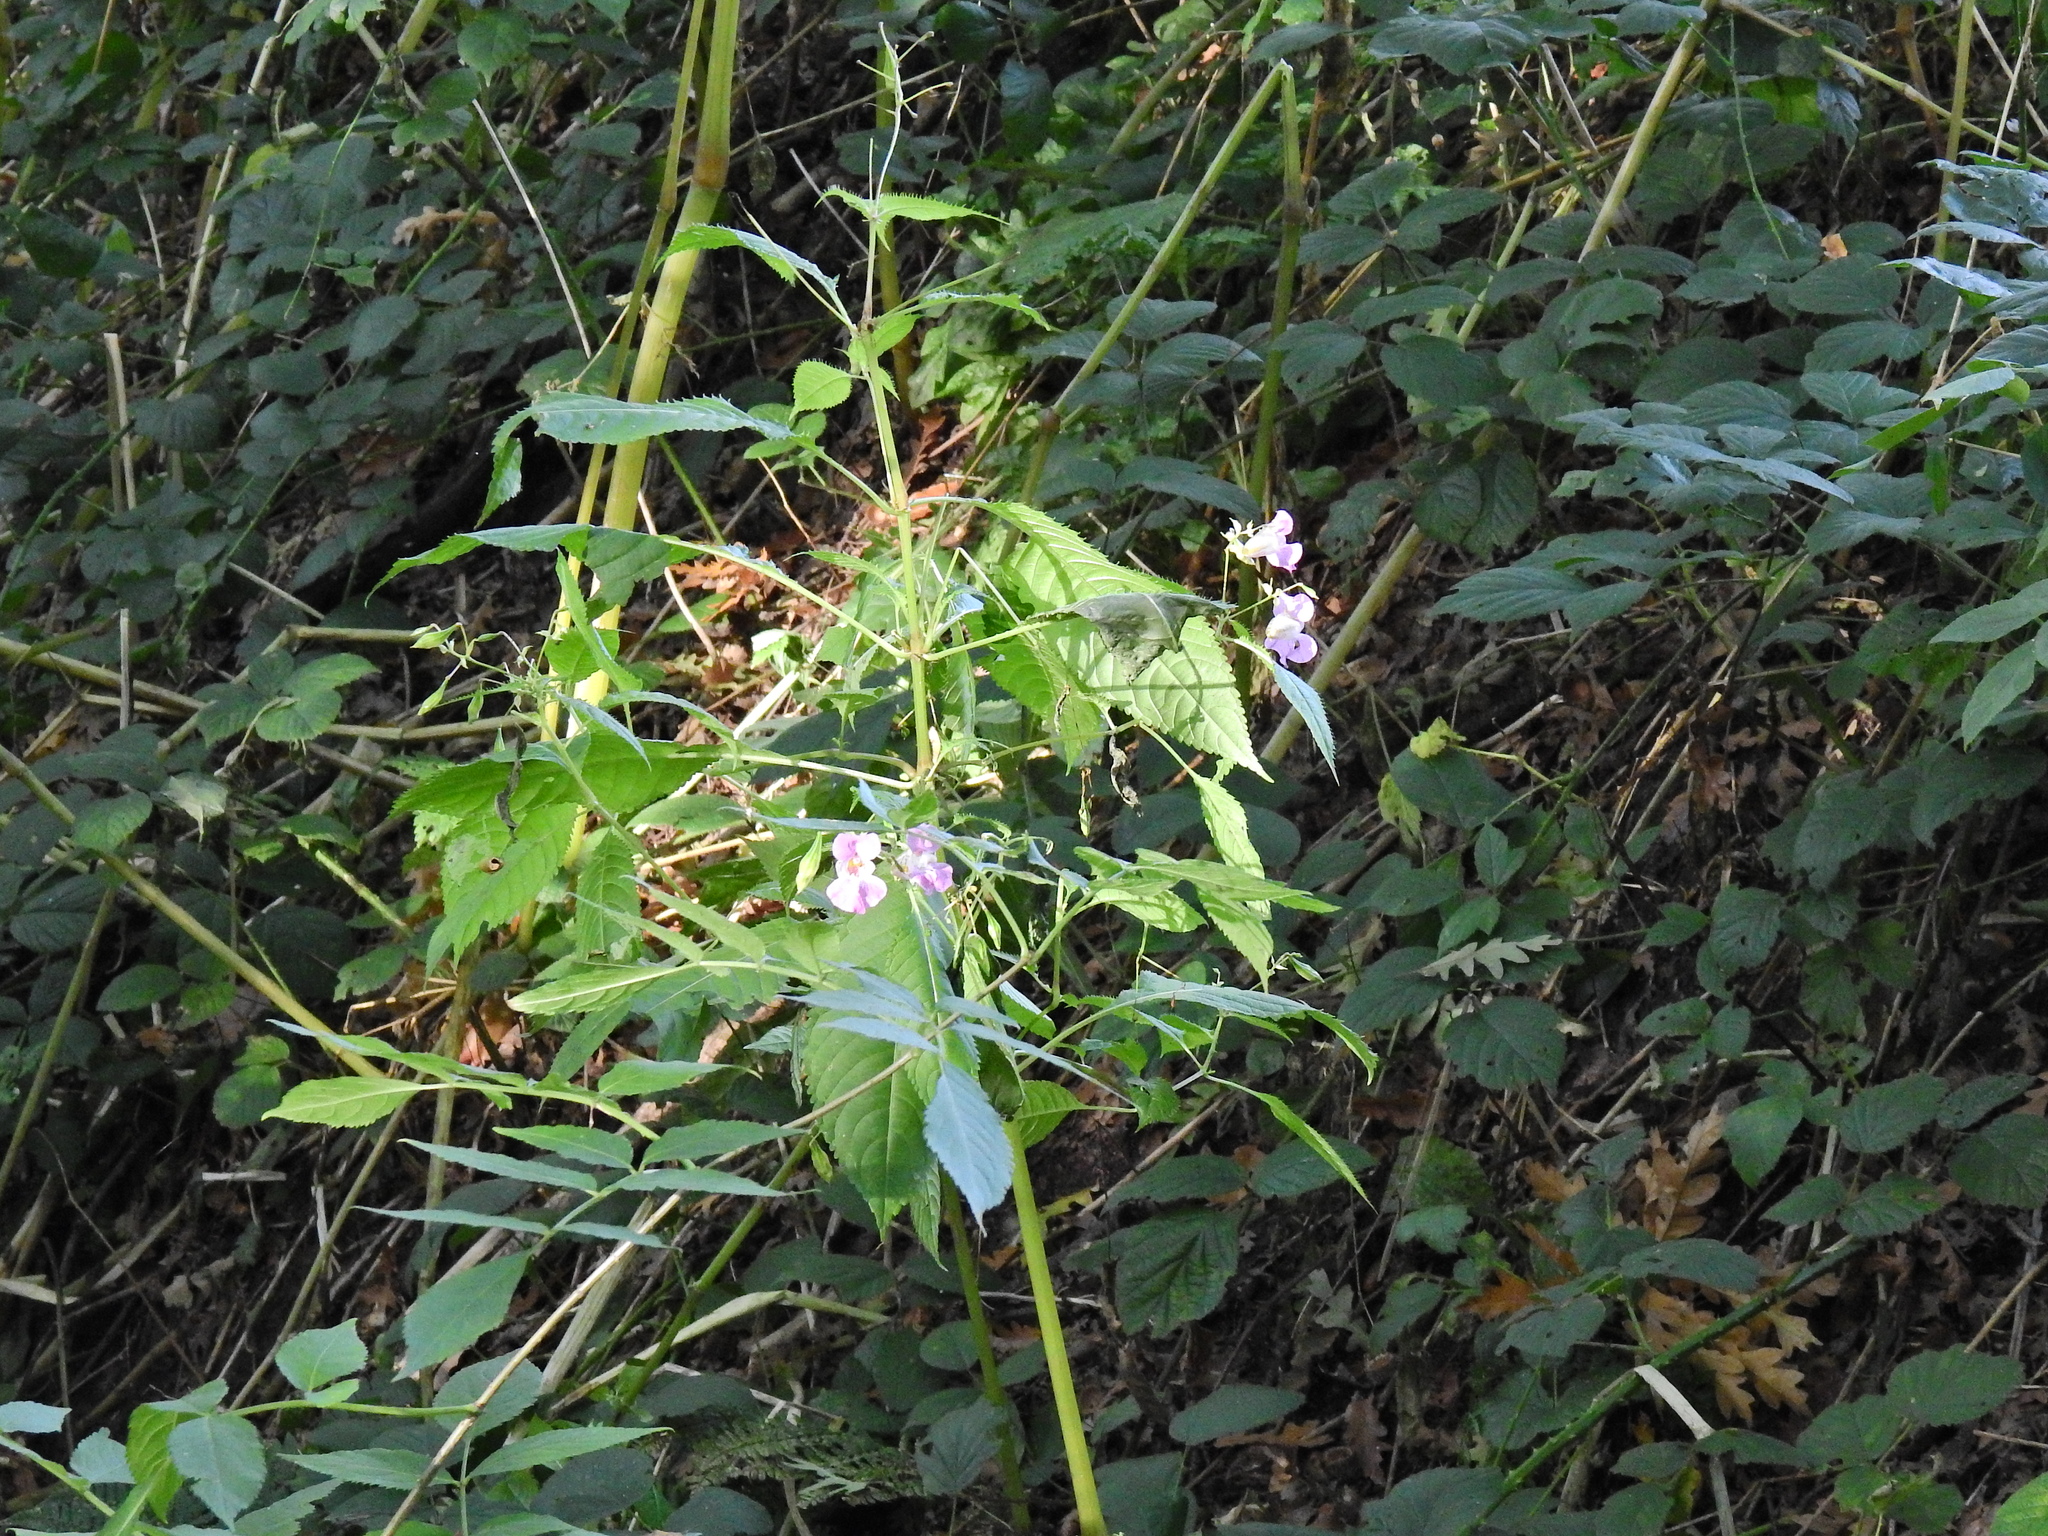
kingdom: Plantae
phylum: Tracheophyta
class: Magnoliopsida
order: Ericales
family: Balsaminaceae
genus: Impatiens
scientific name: Impatiens glandulifera
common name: Himalayan balsam
